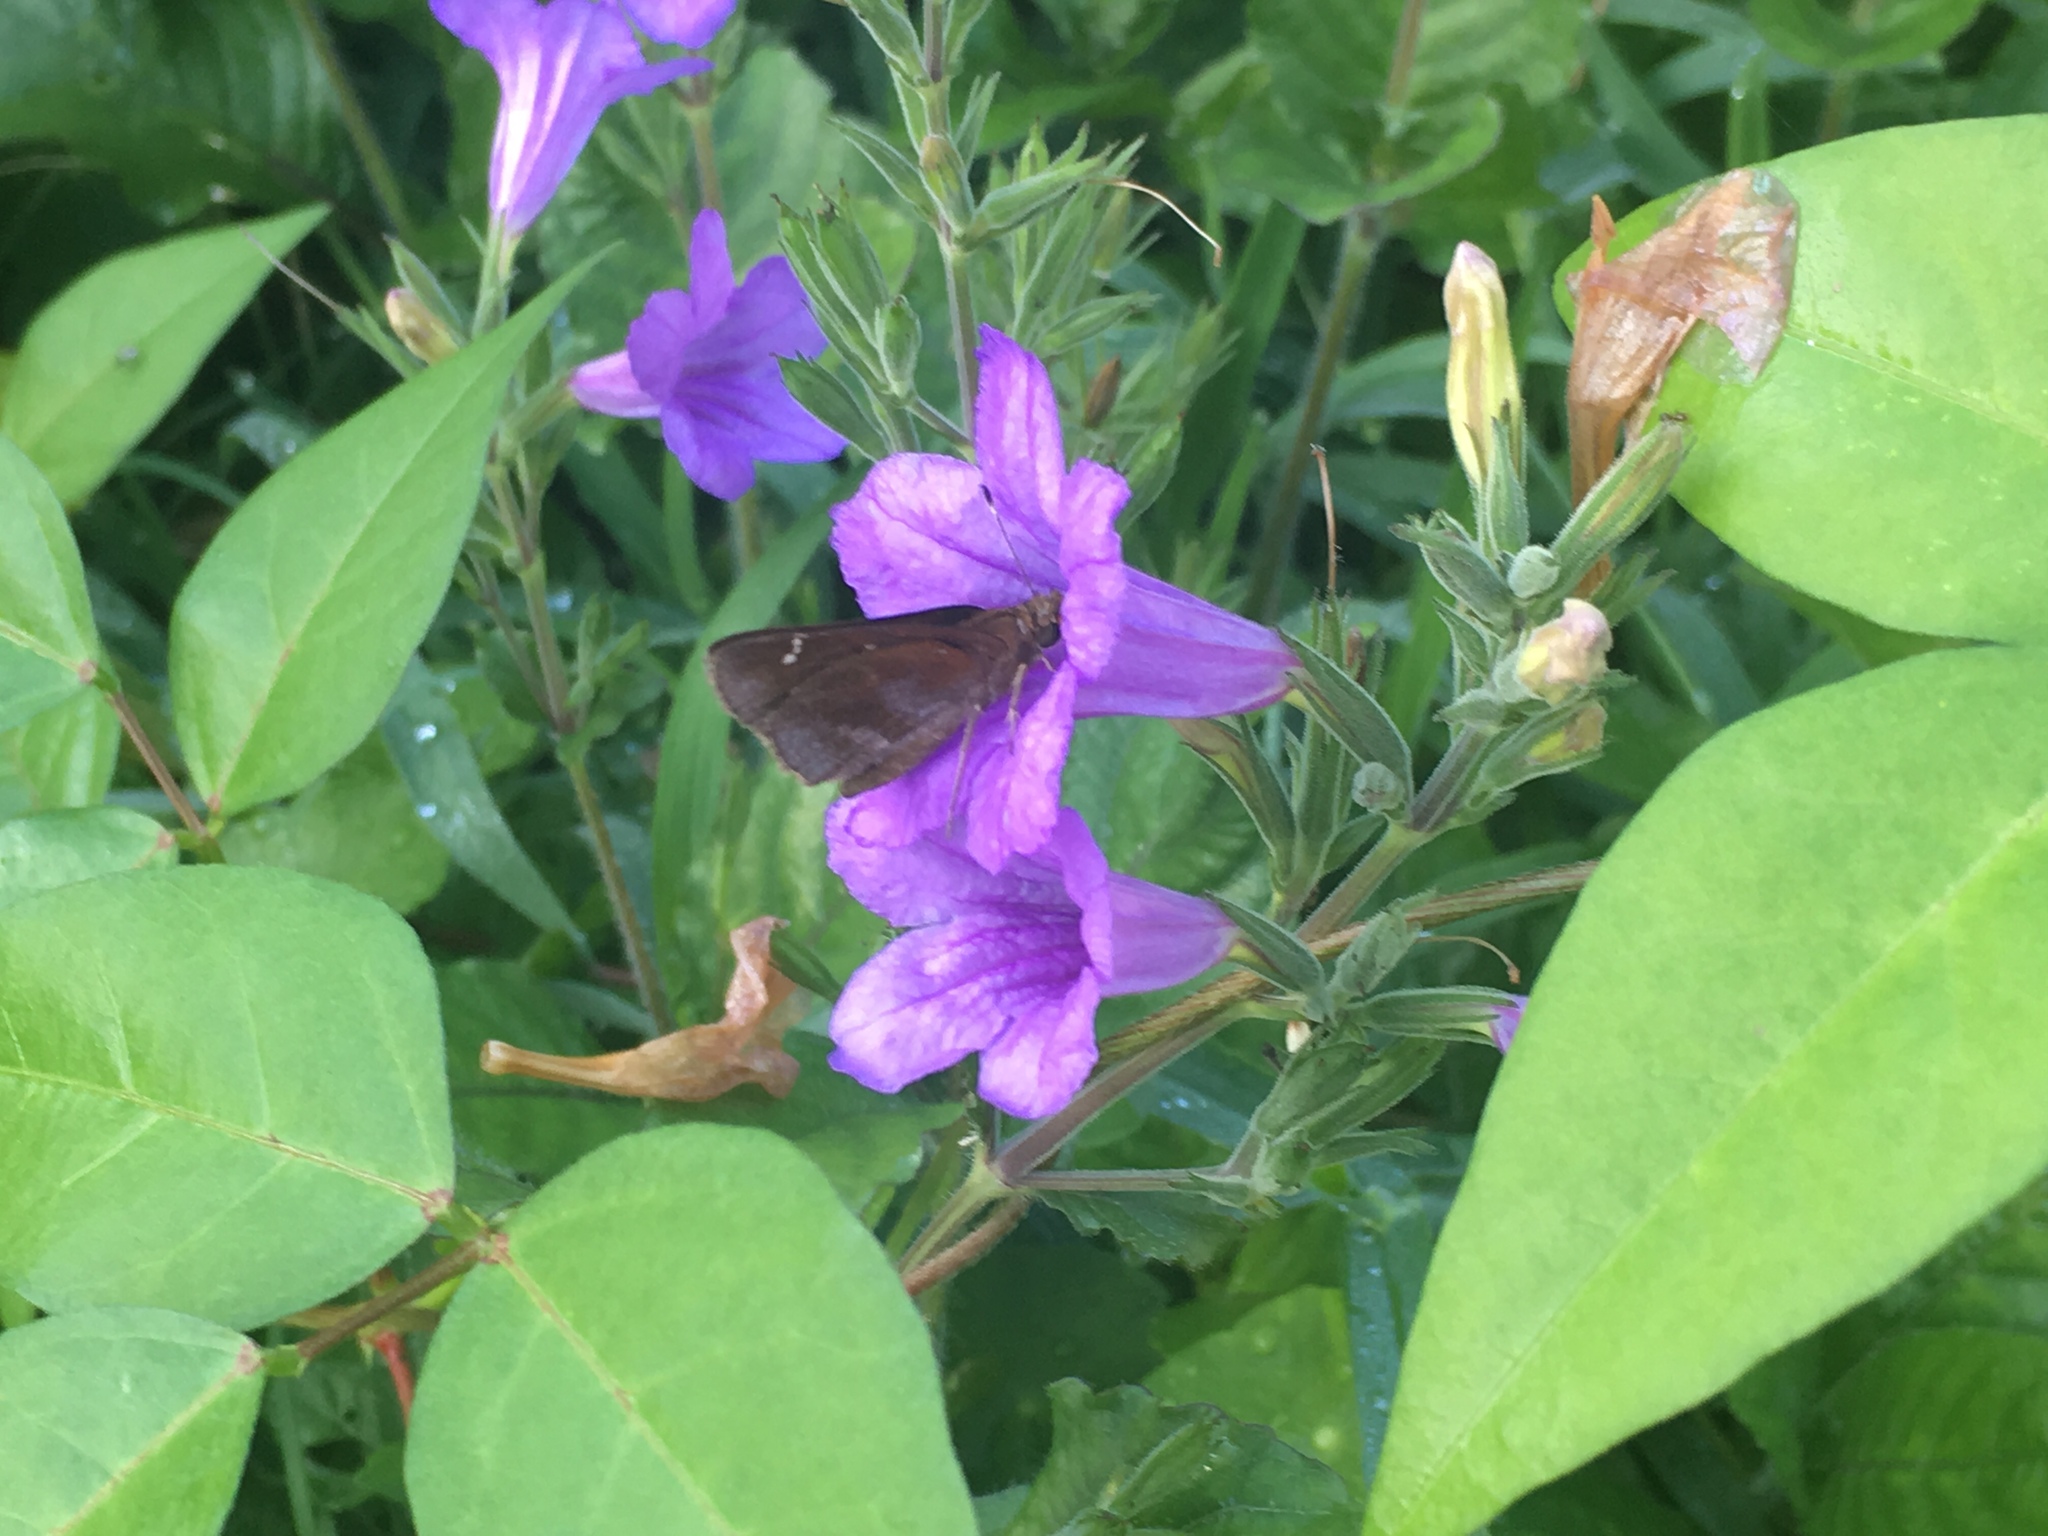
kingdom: Animalia
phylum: Arthropoda
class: Insecta
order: Lepidoptera
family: Hesperiidae
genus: Lerema
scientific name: Lerema accius
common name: Clouded skipper
